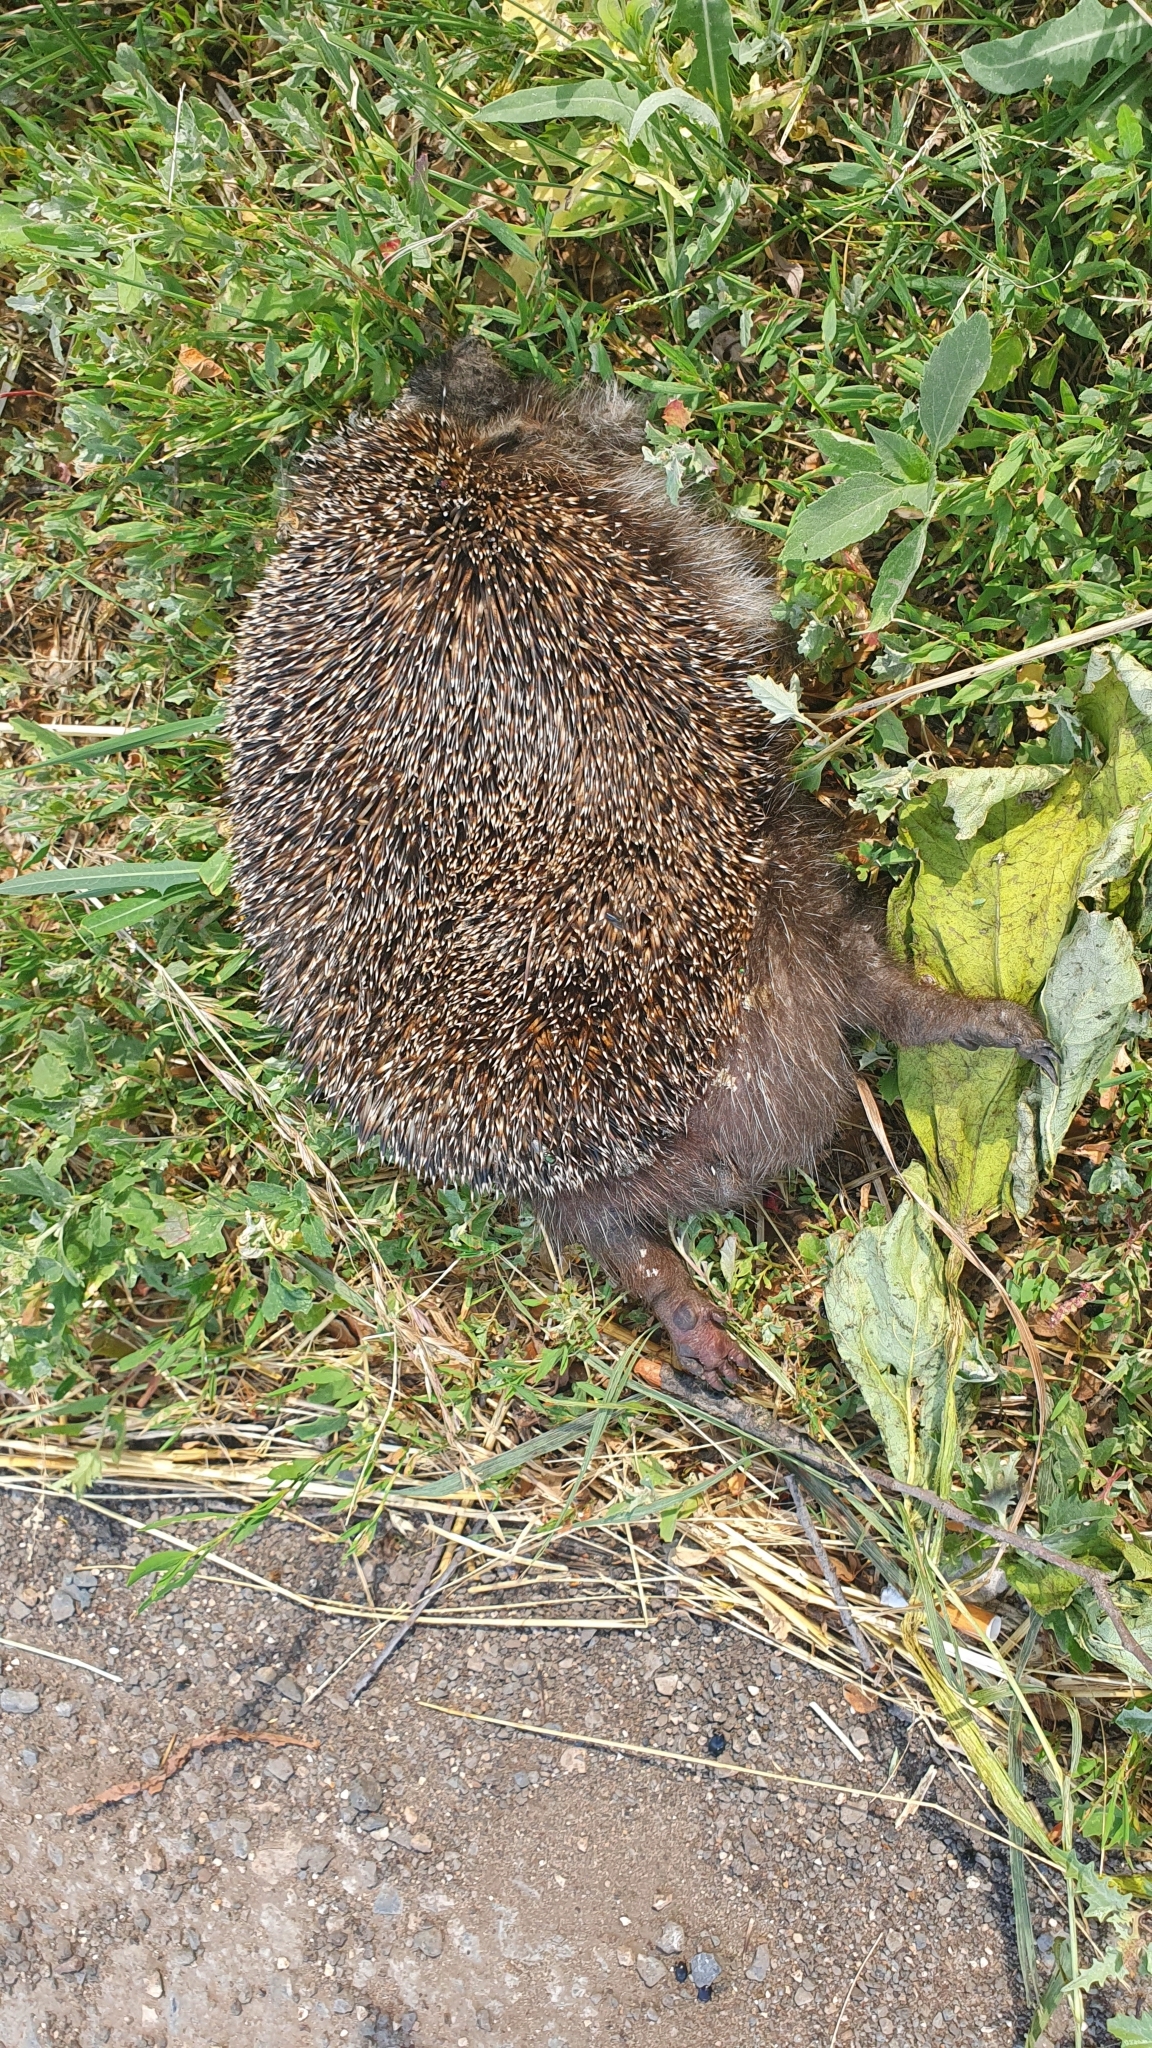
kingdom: Animalia
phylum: Chordata
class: Mammalia
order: Erinaceomorpha
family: Erinaceidae
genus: Erinaceus
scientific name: Erinaceus roumanicus
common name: Northern white-breasted hedgehog
